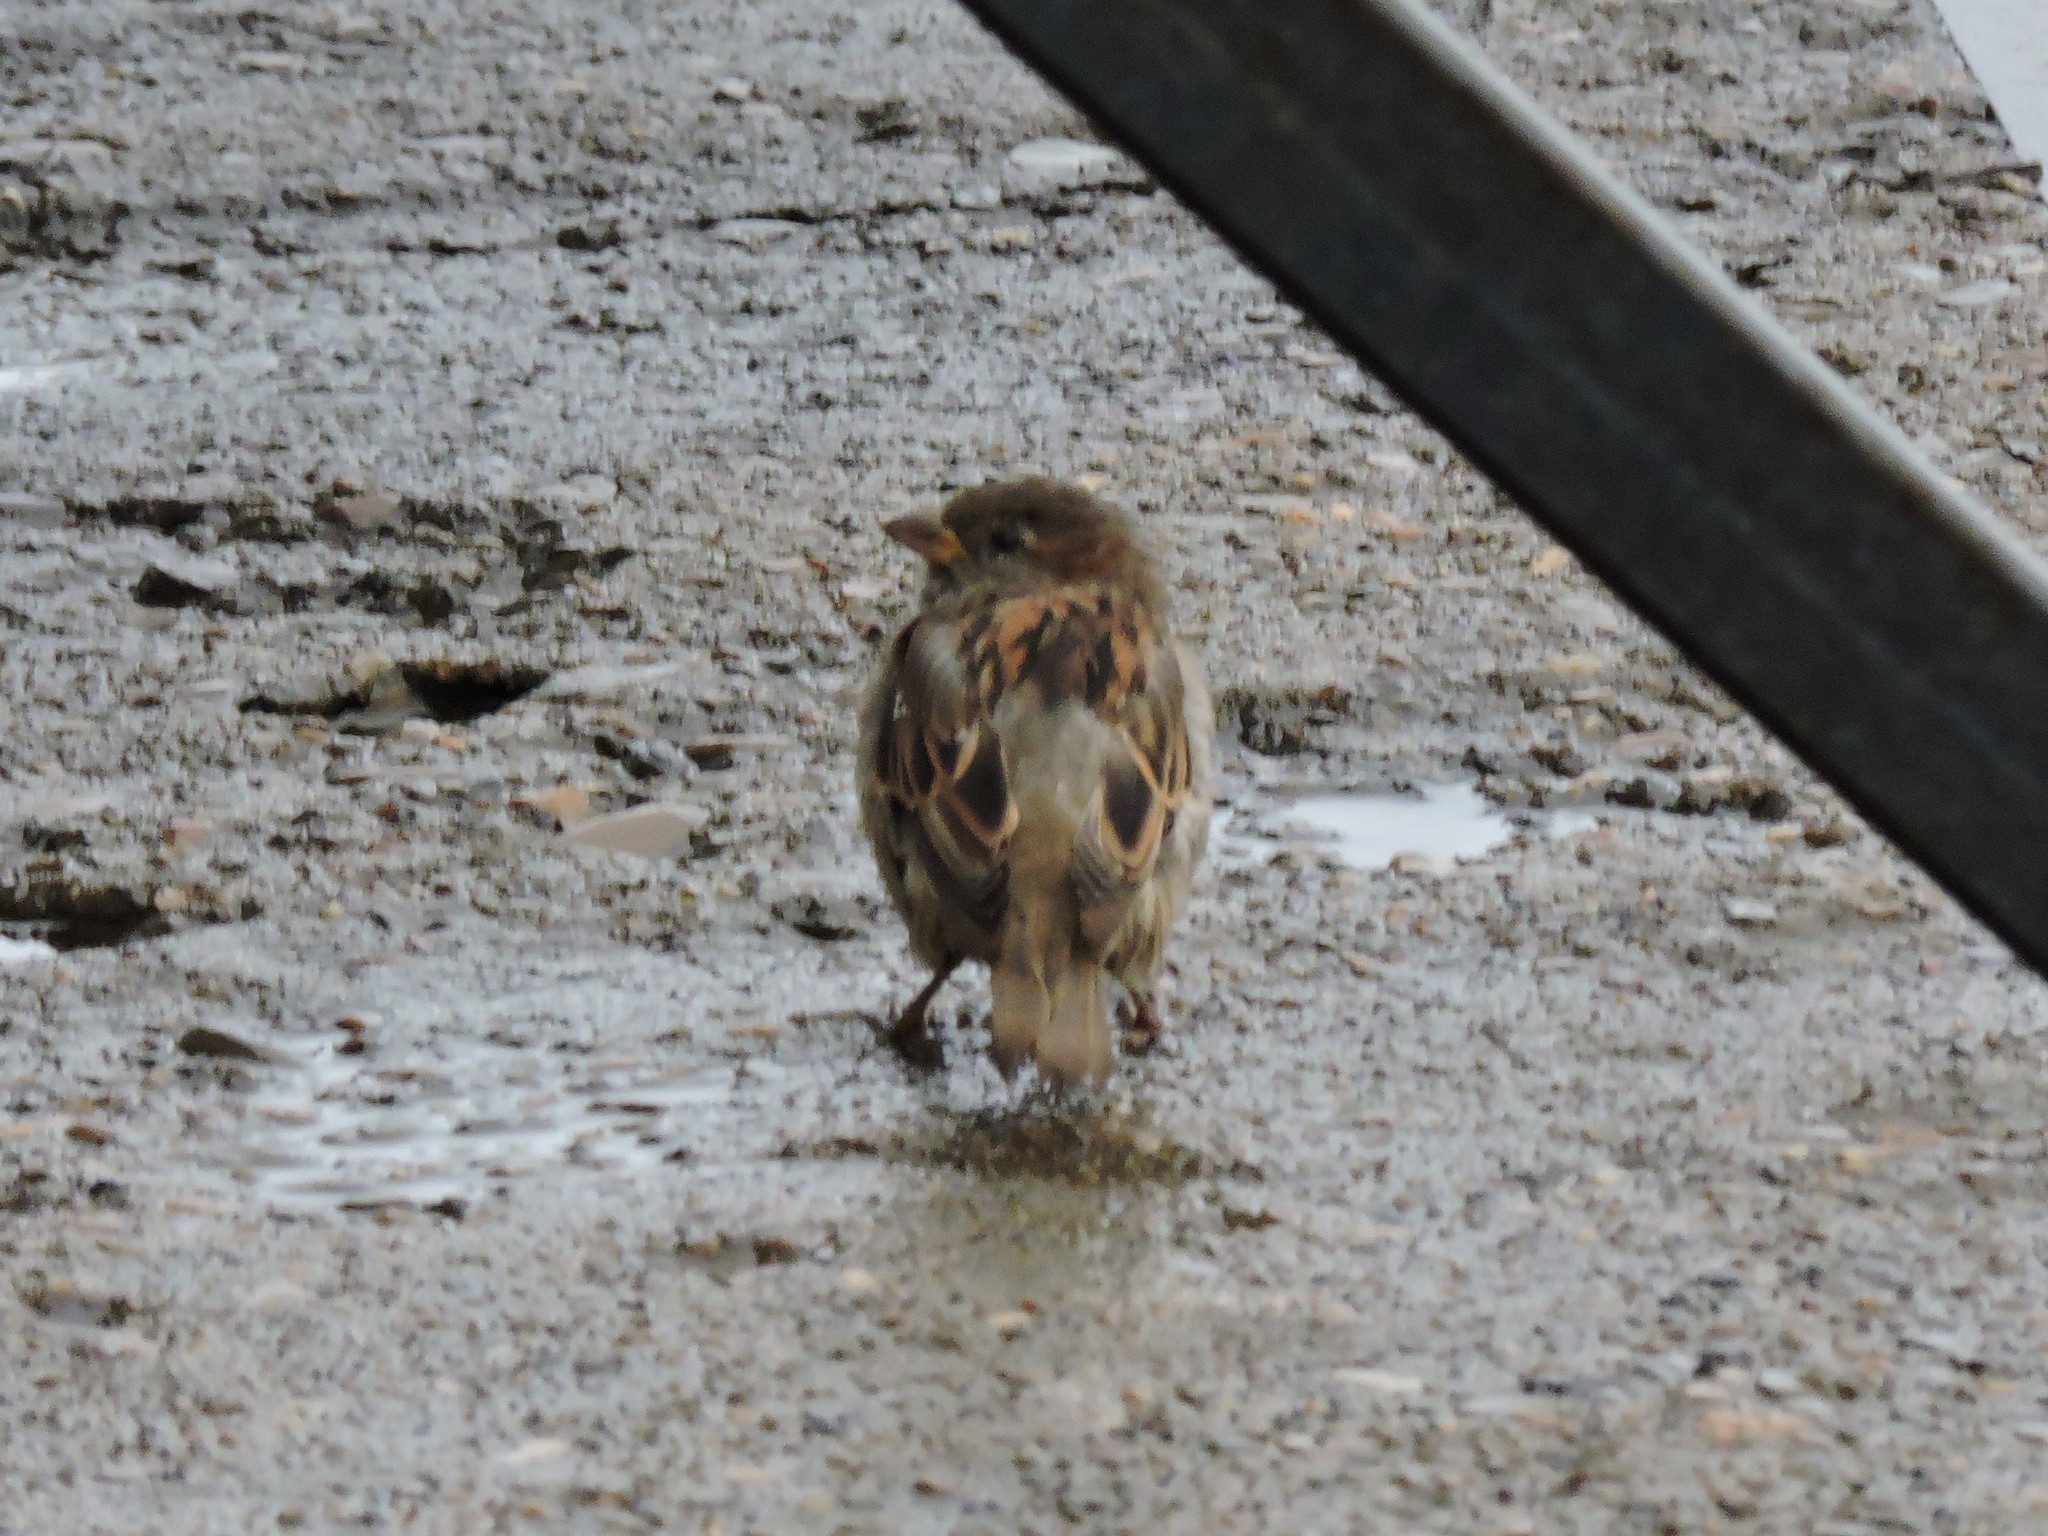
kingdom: Animalia
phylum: Chordata
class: Aves
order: Passeriformes
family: Passeridae
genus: Passer
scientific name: Passer domesticus
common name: House sparrow
